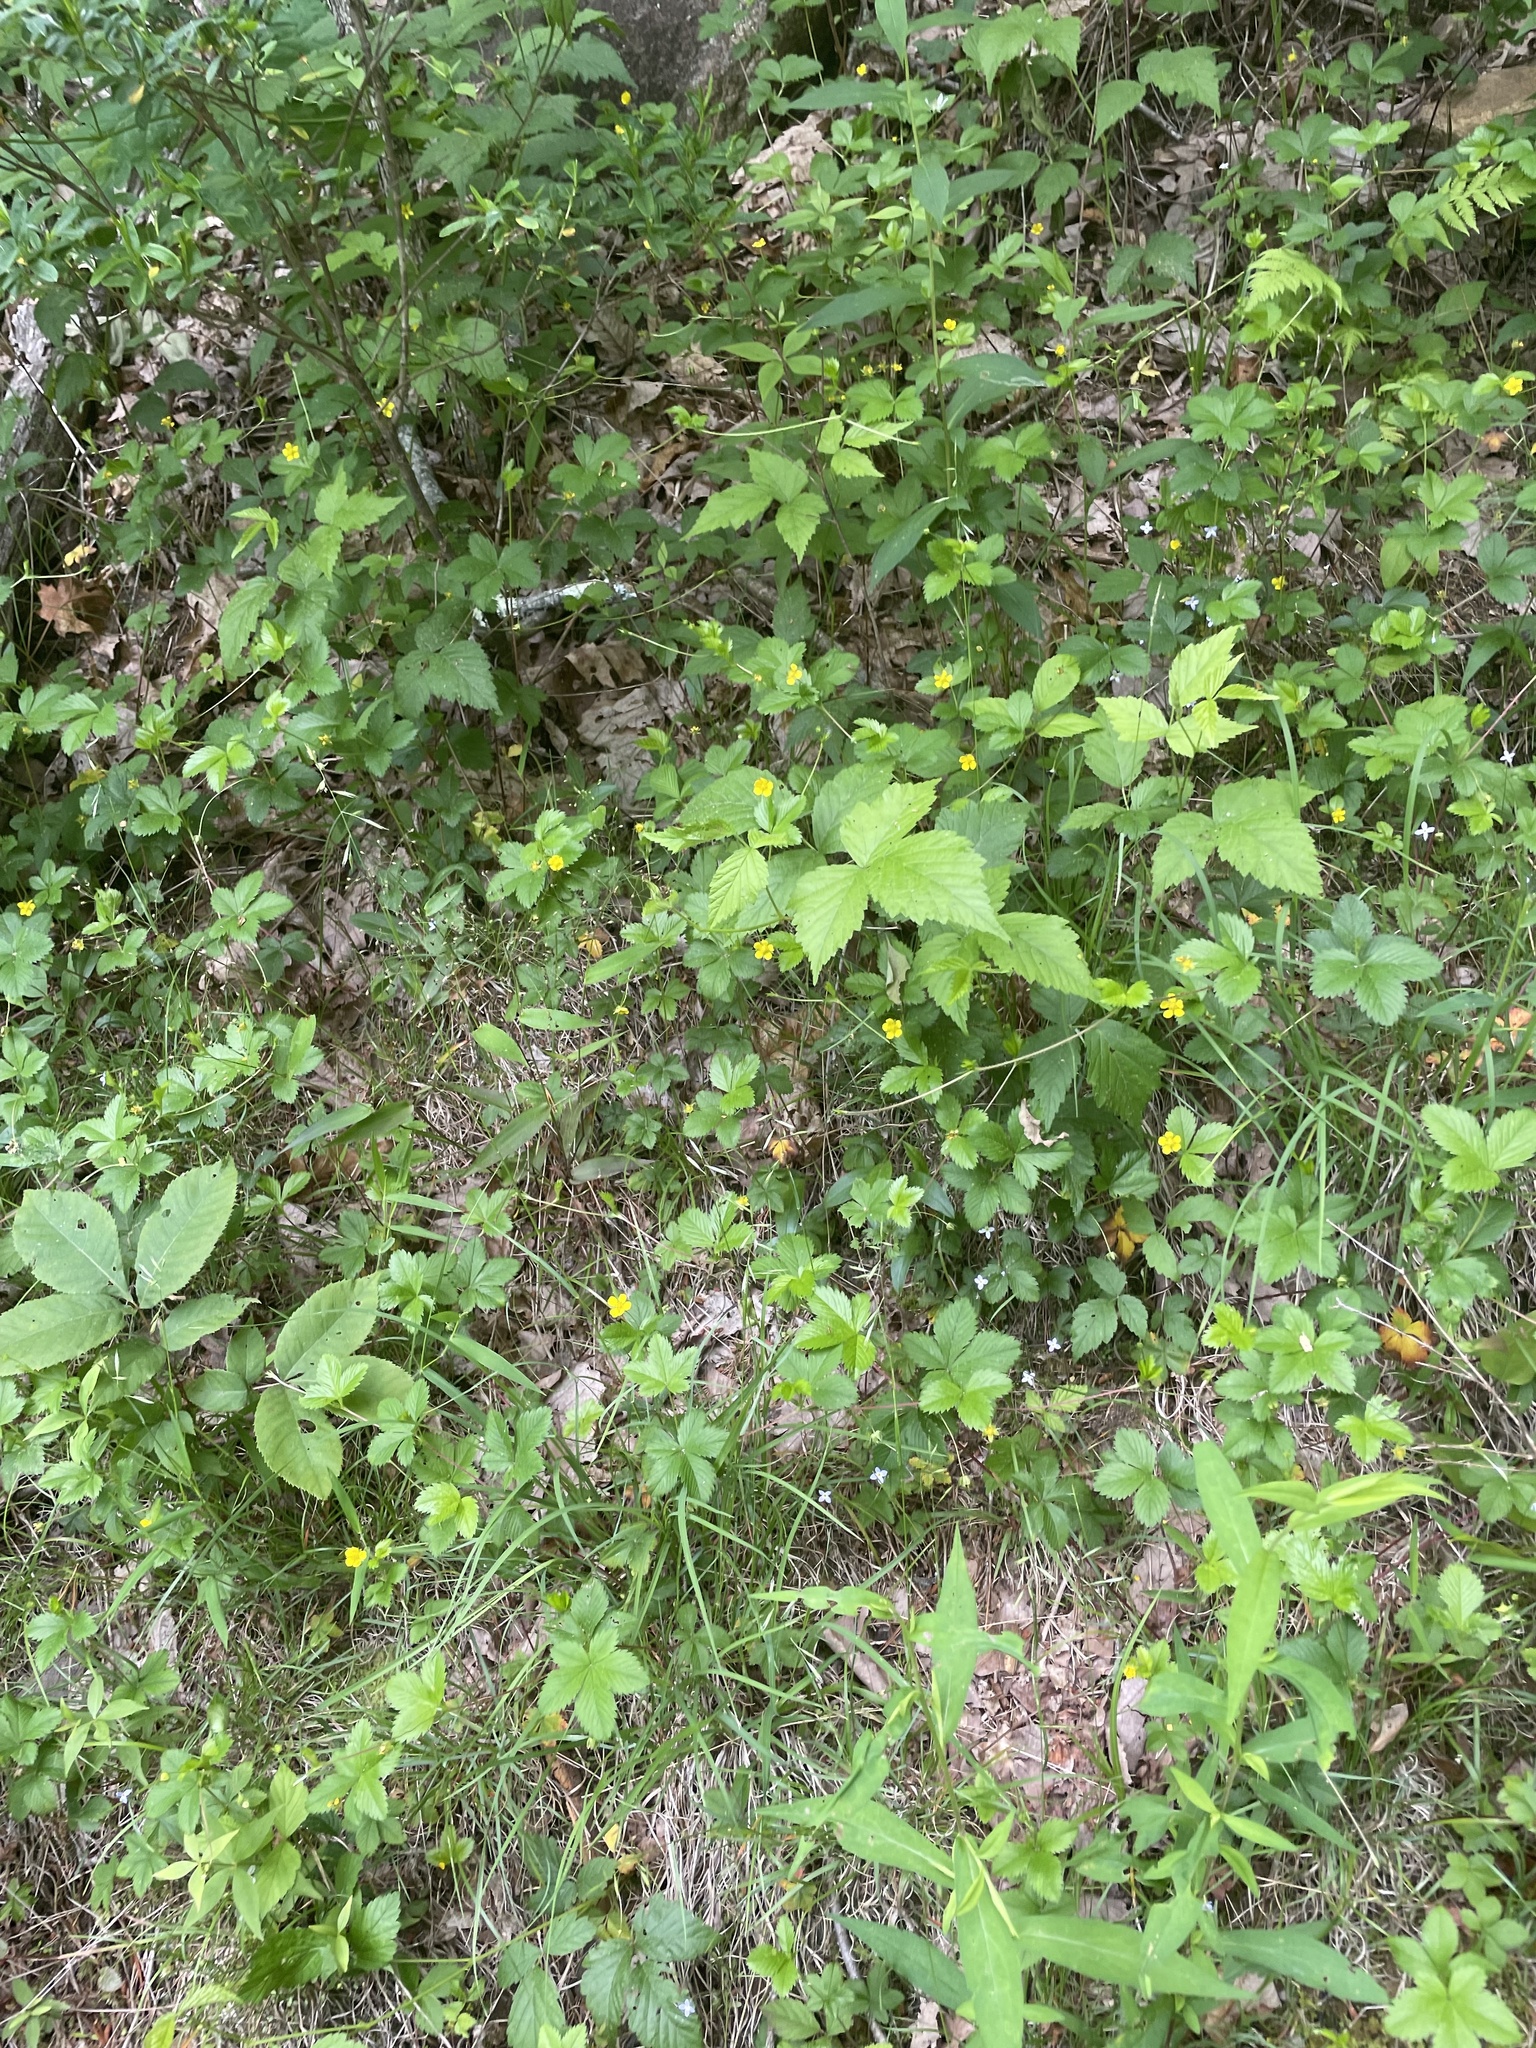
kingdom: Plantae
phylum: Tracheophyta
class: Magnoliopsida
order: Rosales
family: Rosaceae
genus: Potentilla
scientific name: Potentilla simplex
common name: Old field cinquefoil
